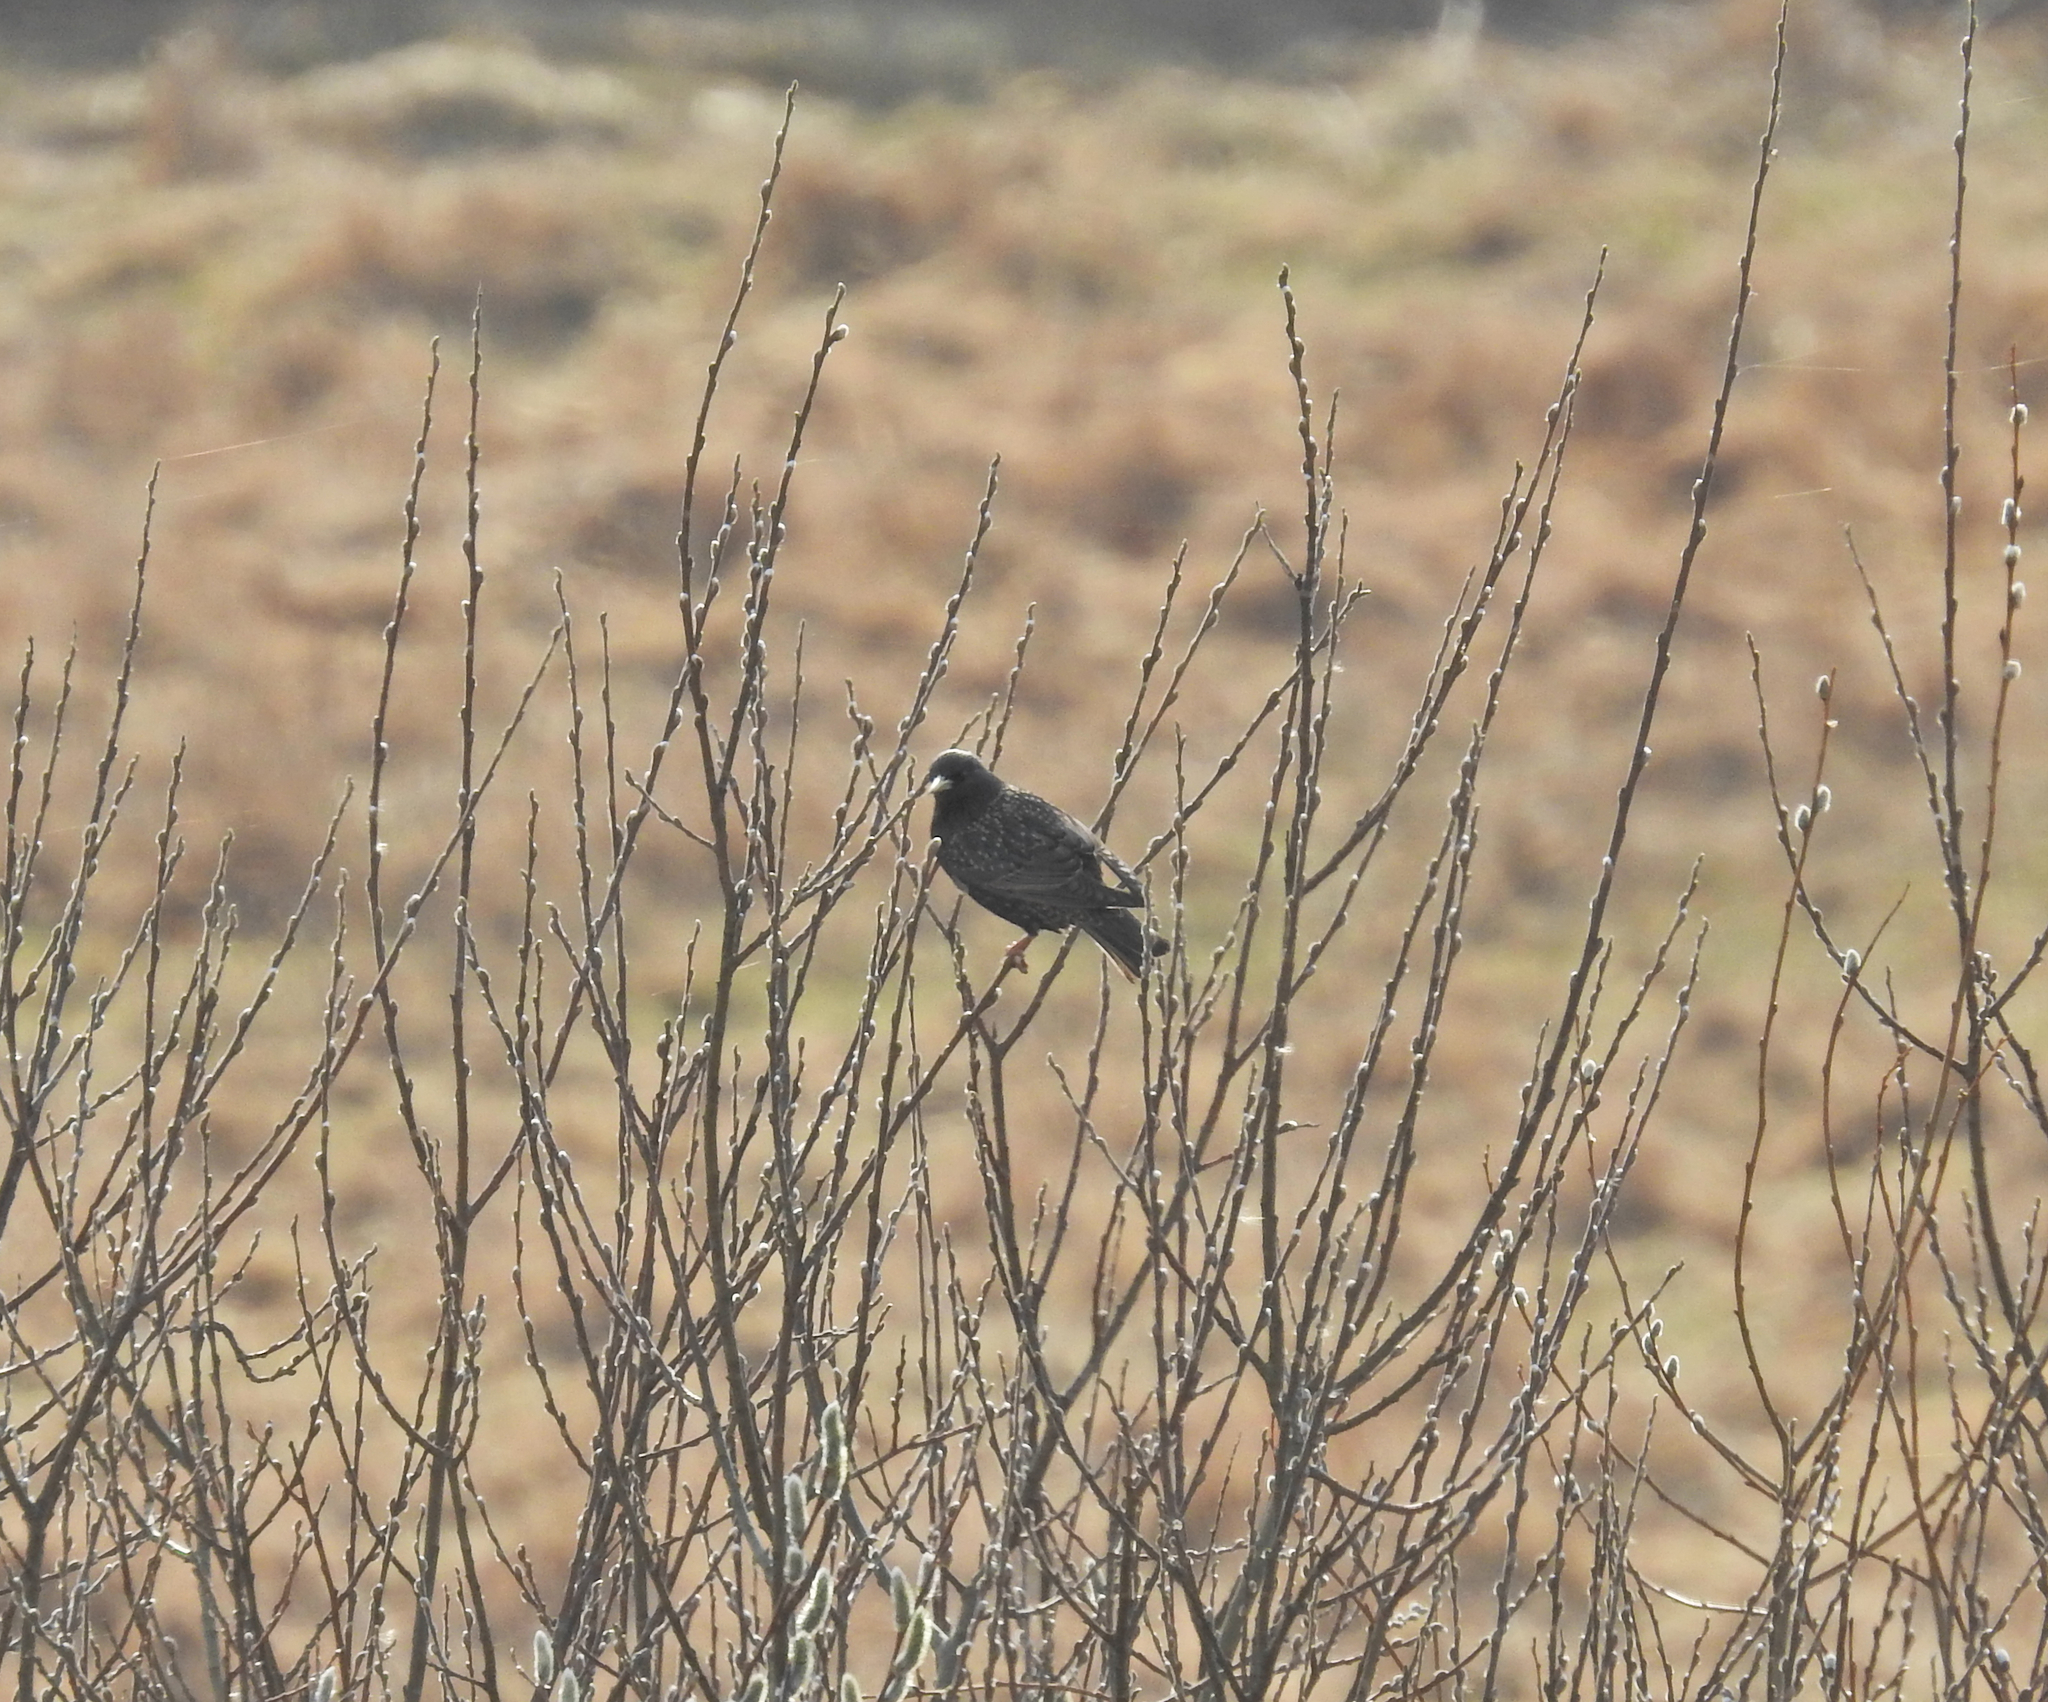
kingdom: Animalia
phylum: Chordata
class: Aves
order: Passeriformes
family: Sturnidae
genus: Sturnus
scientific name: Sturnus vulgaris
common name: Common starling
